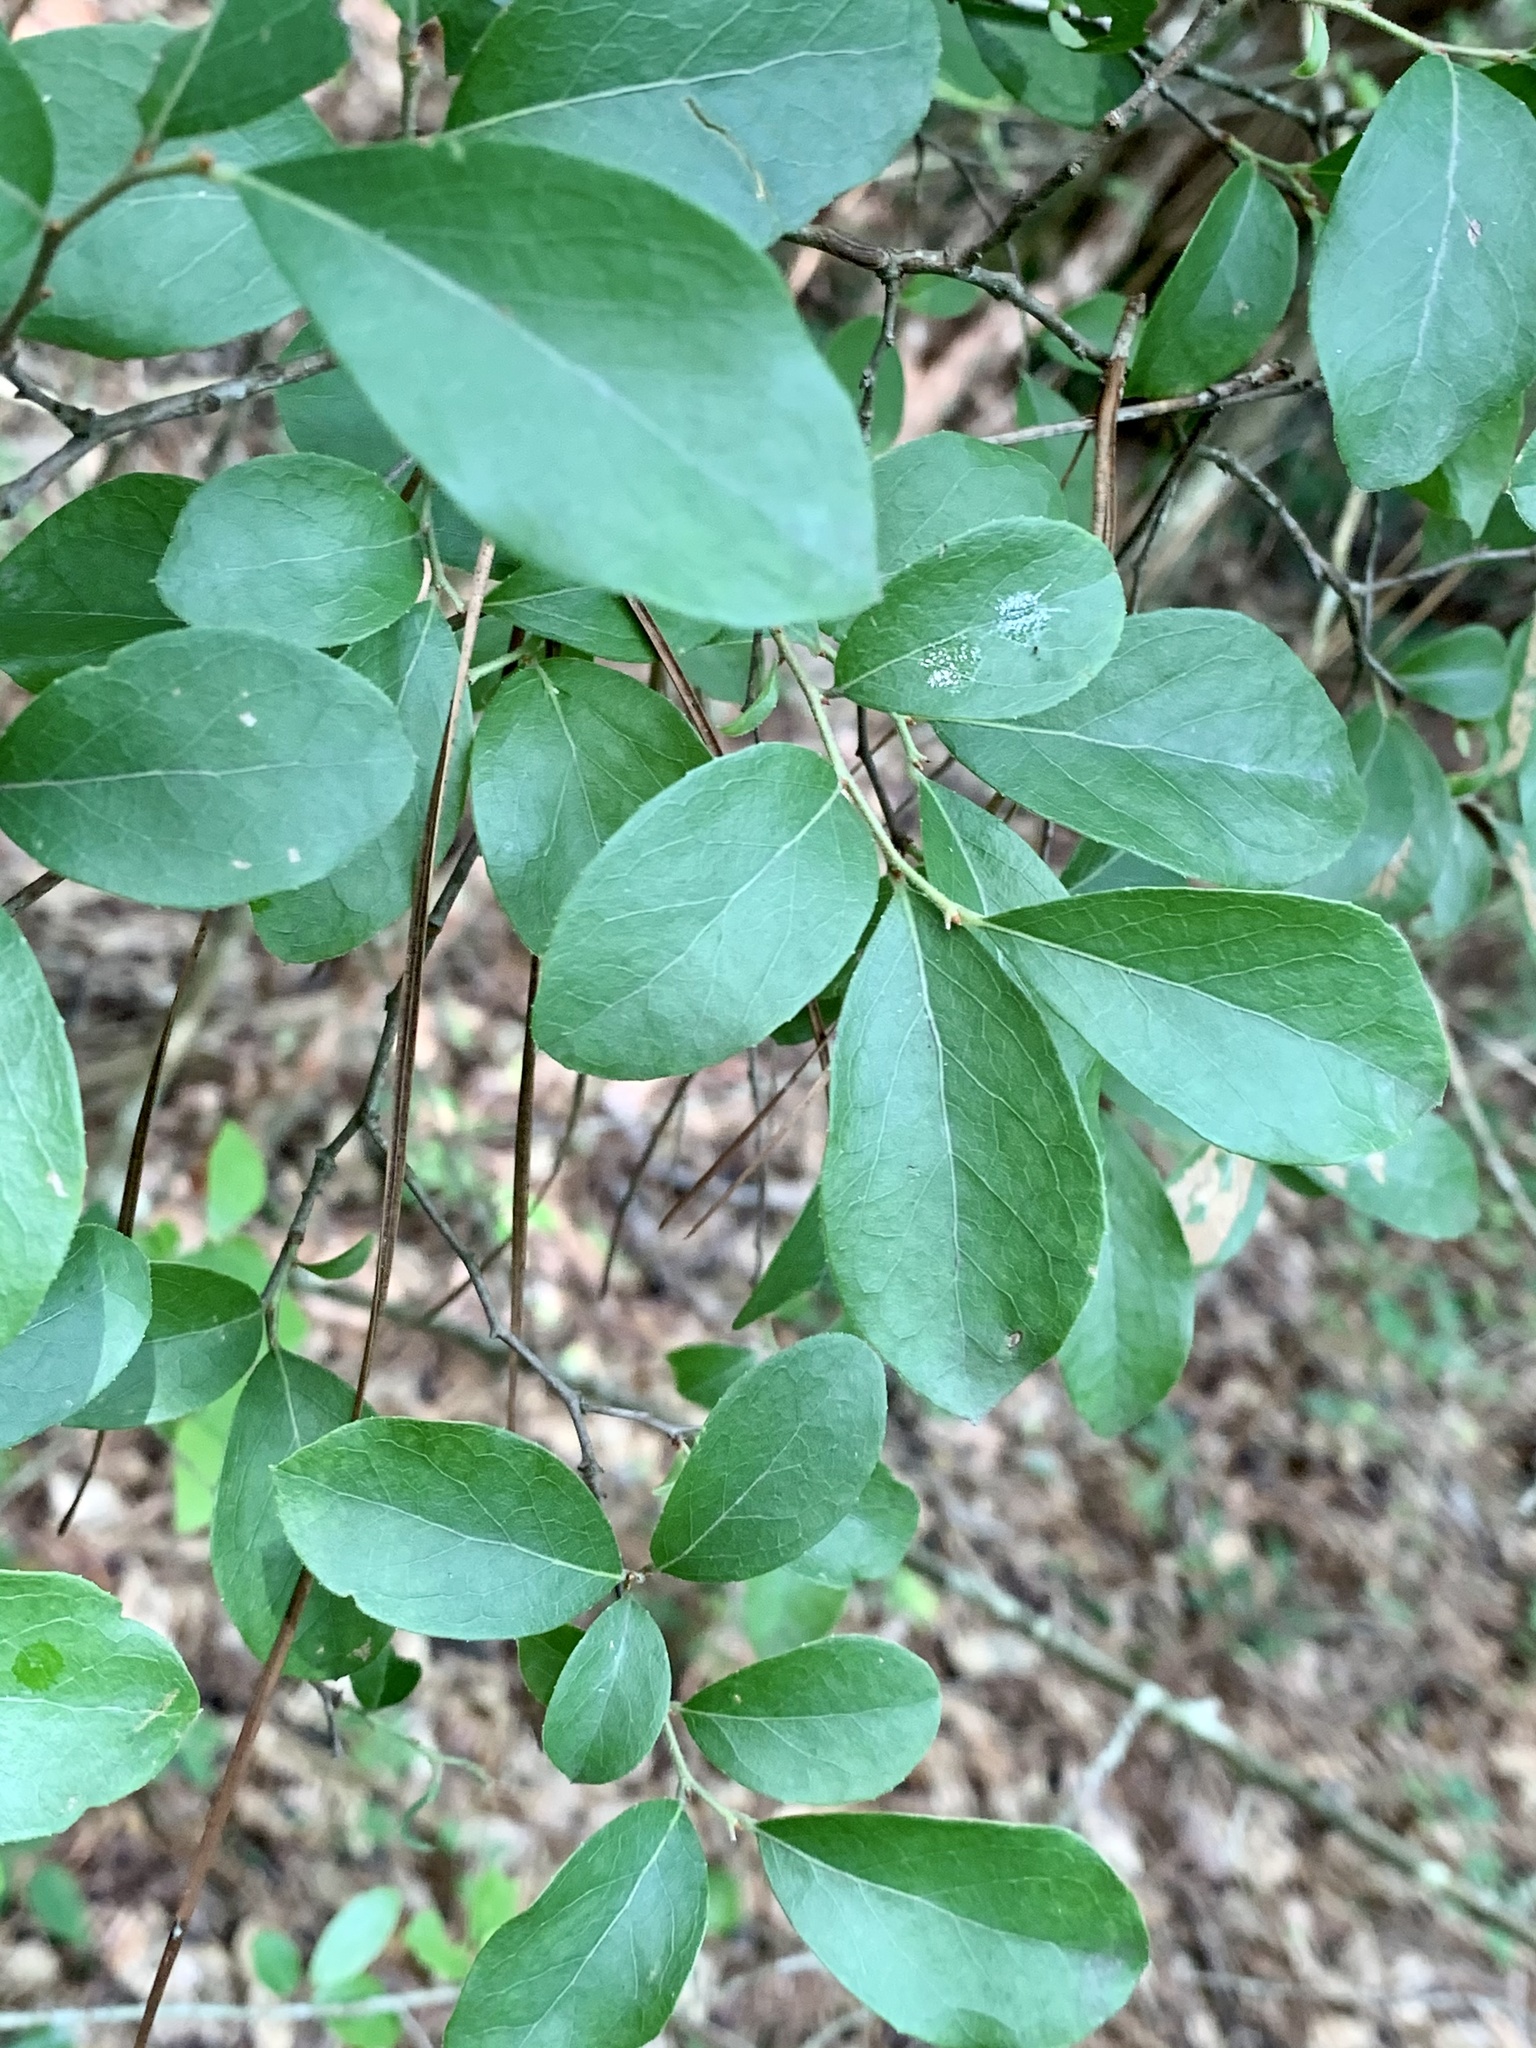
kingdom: Plantae
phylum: Tracheophyta
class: Magnoliopsida
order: Ericales
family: Ericaceae
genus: Vaccinium
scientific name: Vaccinium arboreum
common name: Farkleberry
